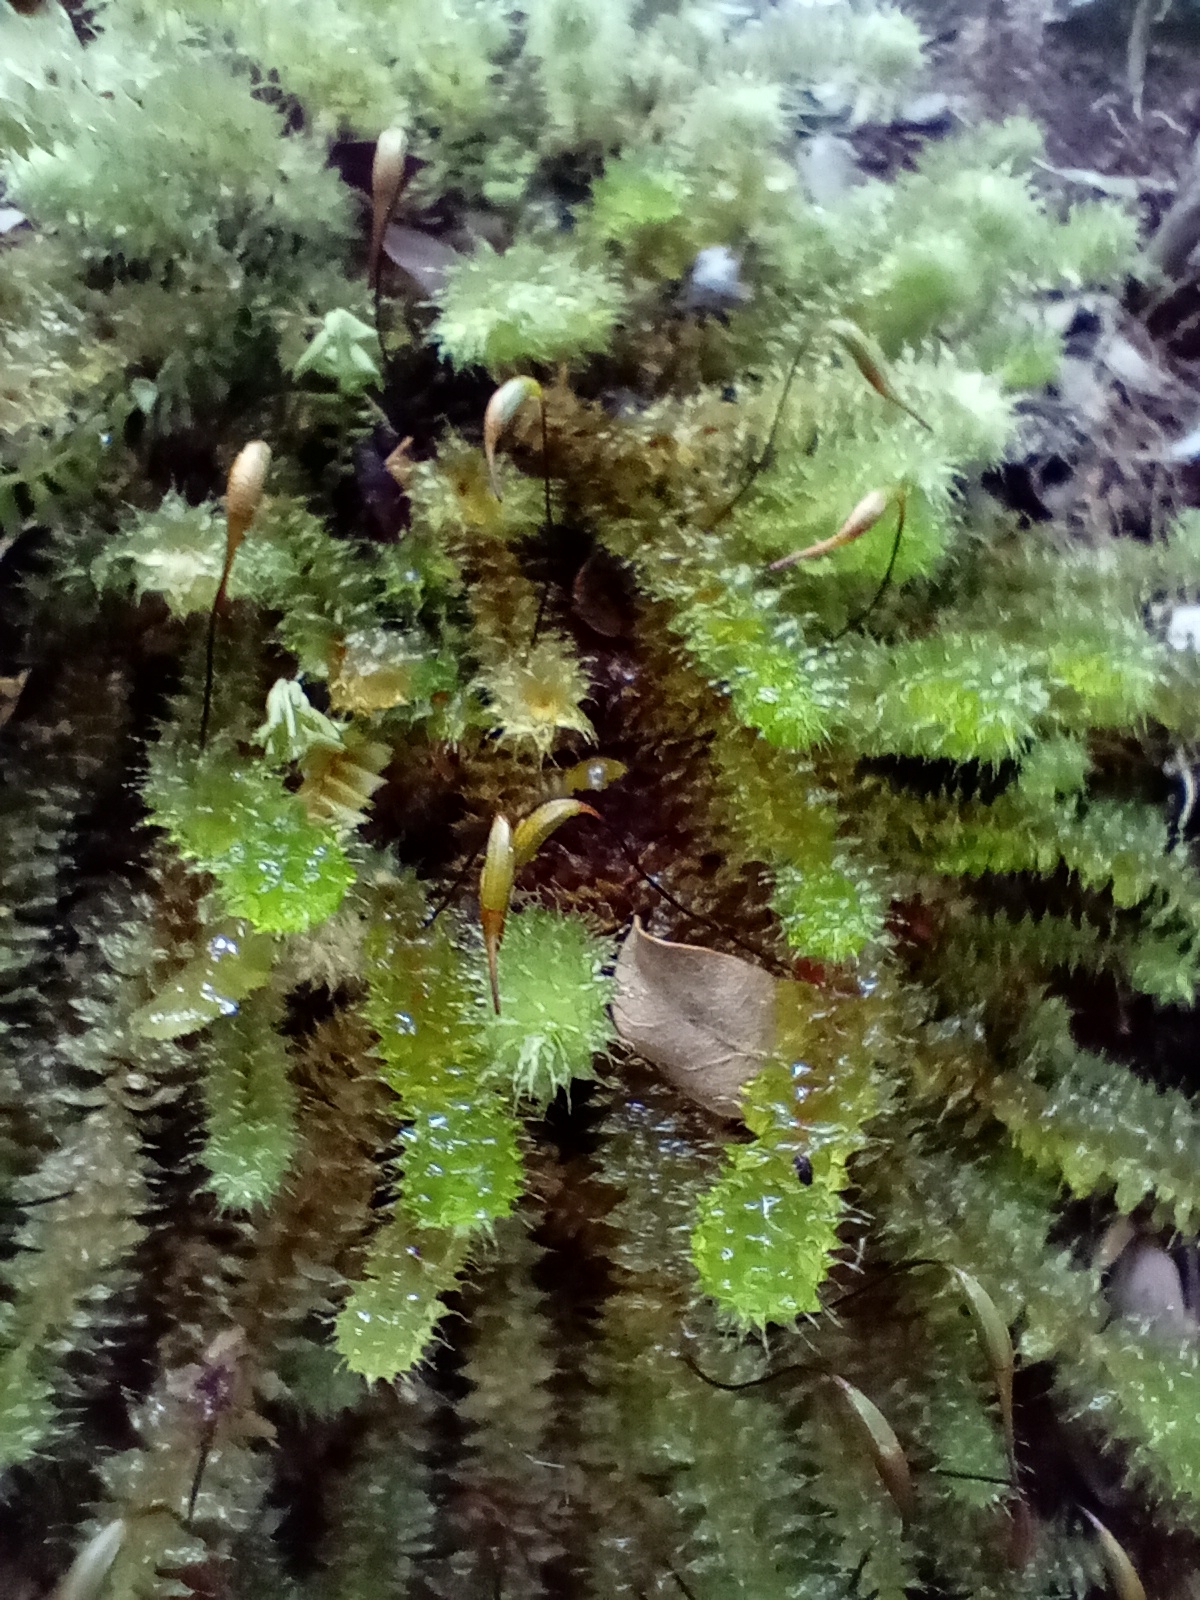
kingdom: Plantae
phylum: Bryophyta
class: Bryopsida
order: Ptychomniales
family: Ptychomniaceae
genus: Ptychomnion
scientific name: Ptychomnion aciculare
